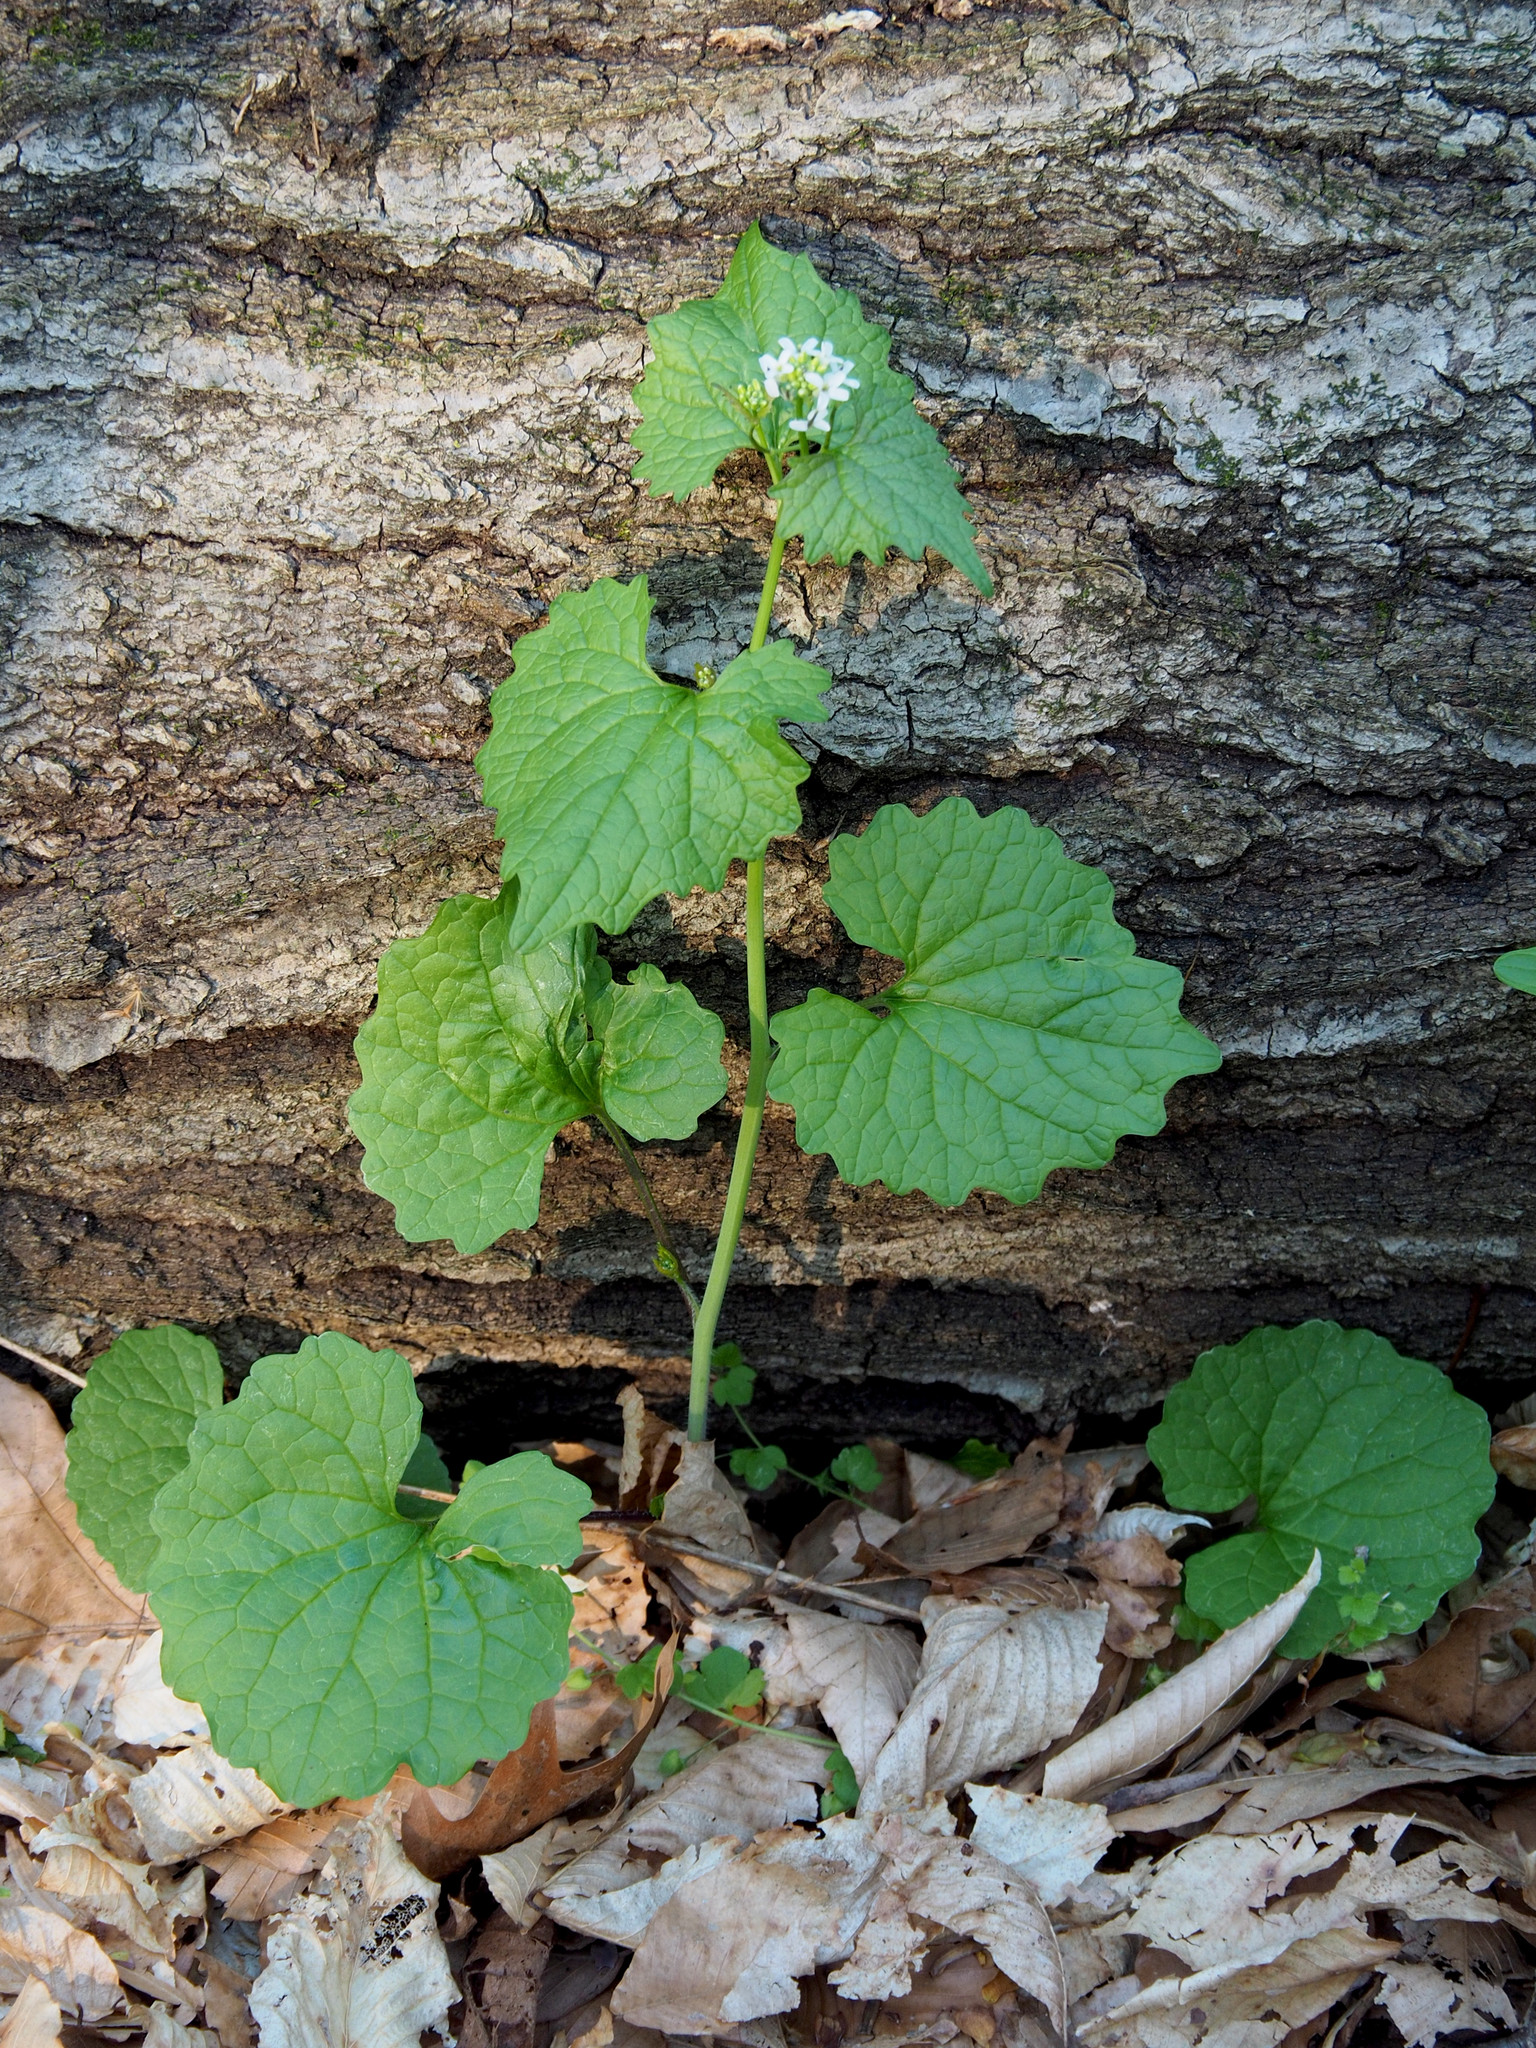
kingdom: Plantae
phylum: Tracheophyta
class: Magnoliopsida
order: Brassicales
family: Brassicaceae
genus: Alliaria
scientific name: Alliaria petiolata
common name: Garlic mustard
